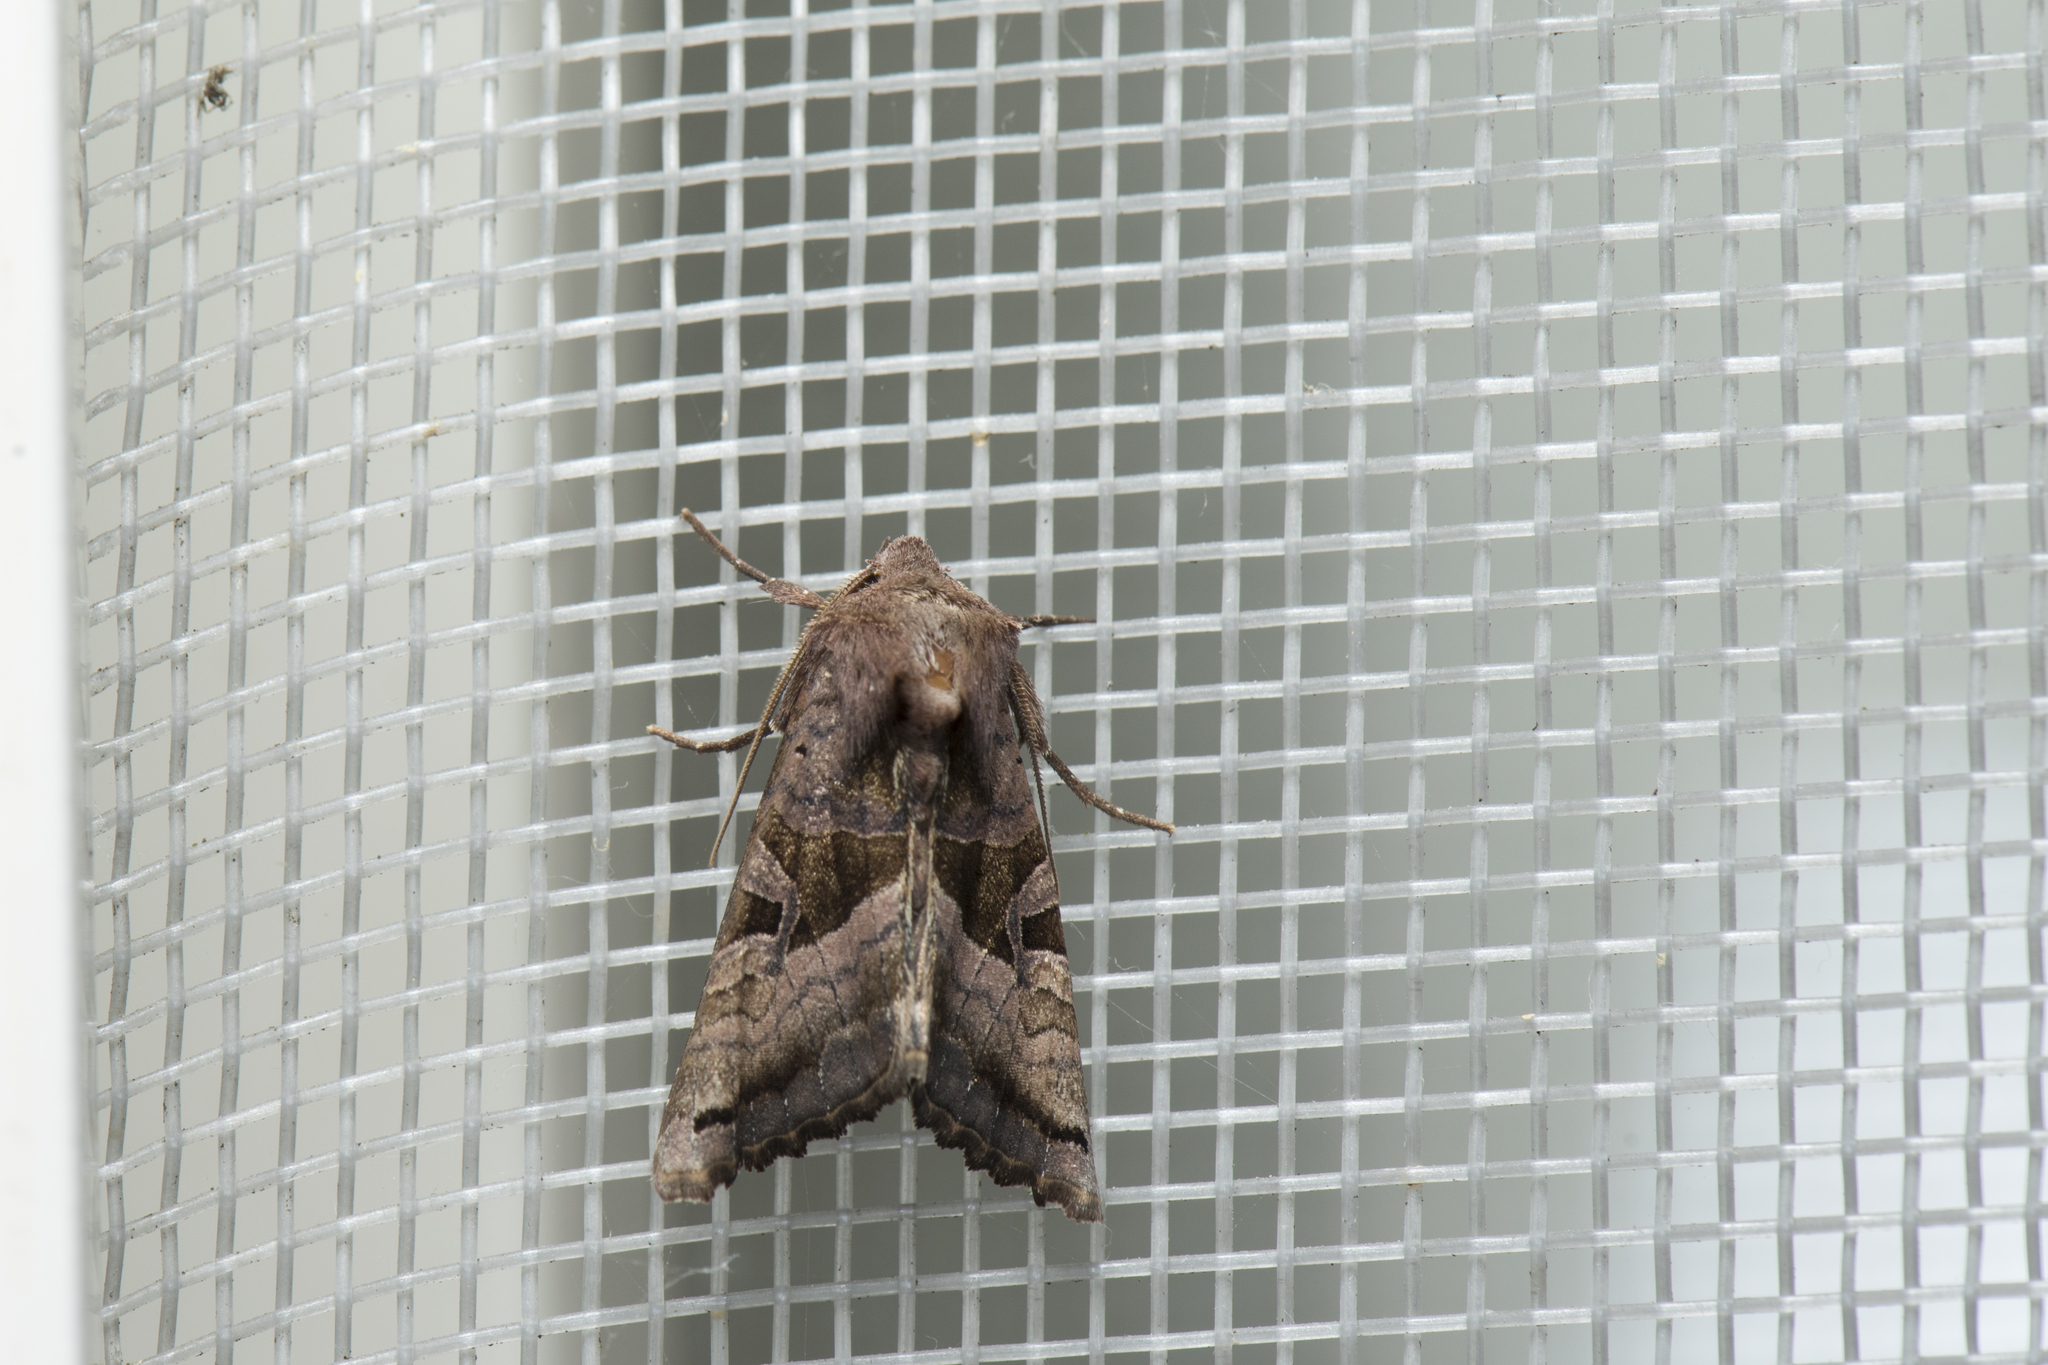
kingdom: Animalia
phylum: Arthropoda
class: Insecta
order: Lepidoptera
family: Noctuidae
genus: Phlogophora
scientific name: Phlogophora insularis
